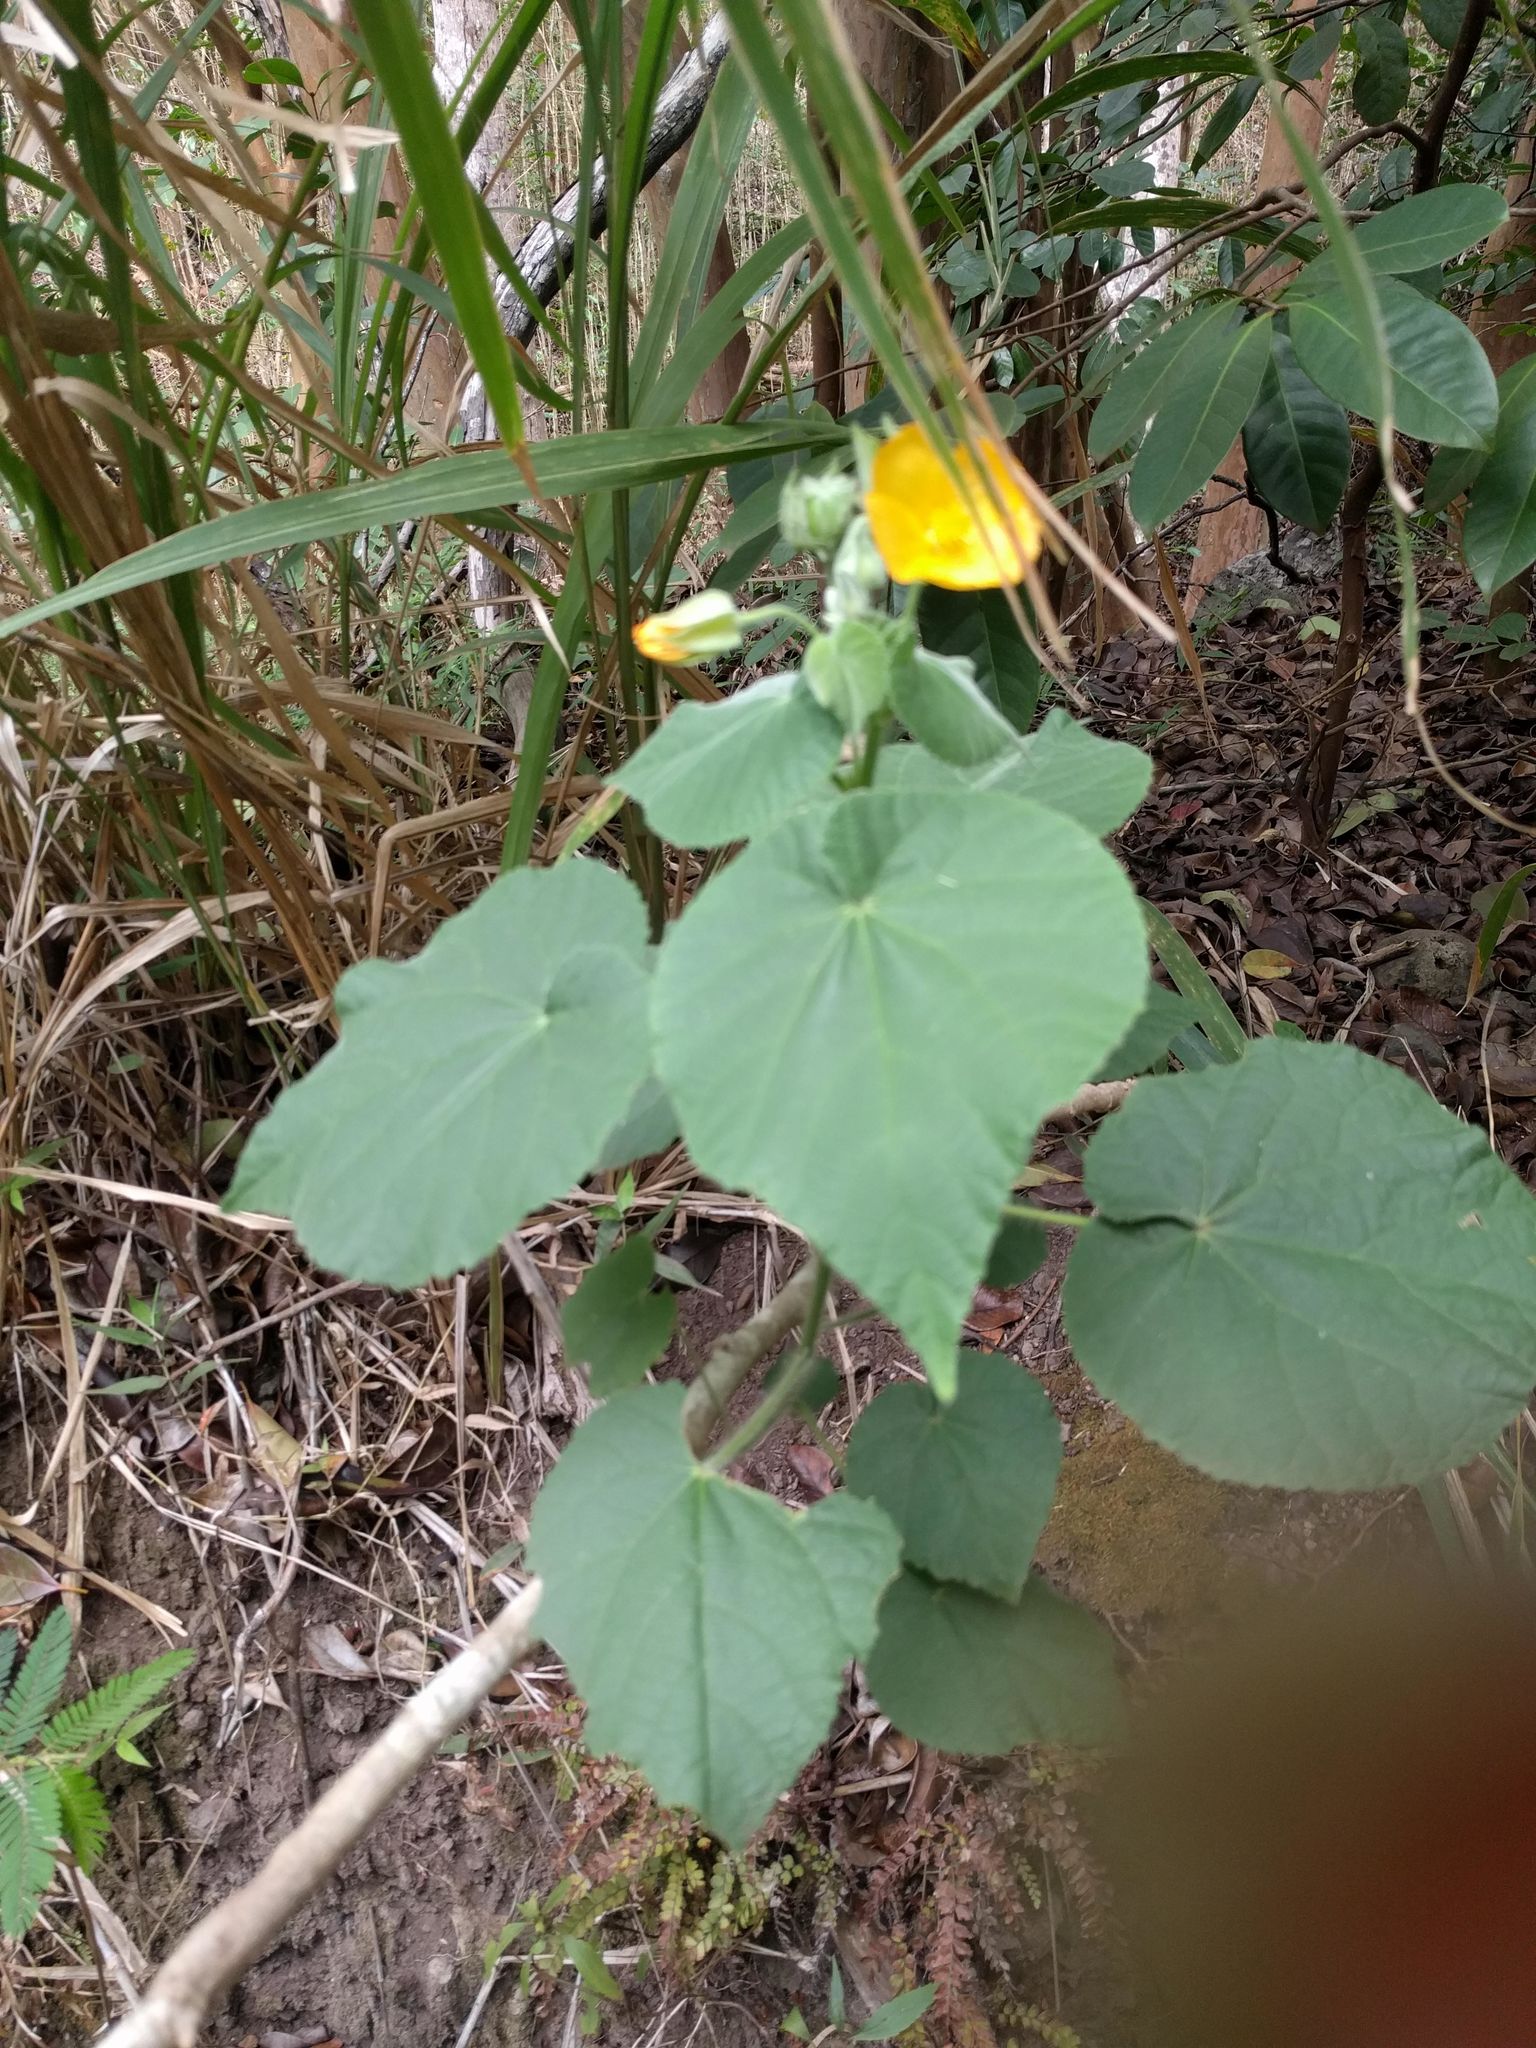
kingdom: Plantae
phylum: Tracheophyta
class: Magnoliopsida
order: Malvales
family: Malvaceae
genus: Abutilon
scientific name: Abutilon grandifolium
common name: Hairy abutilon
